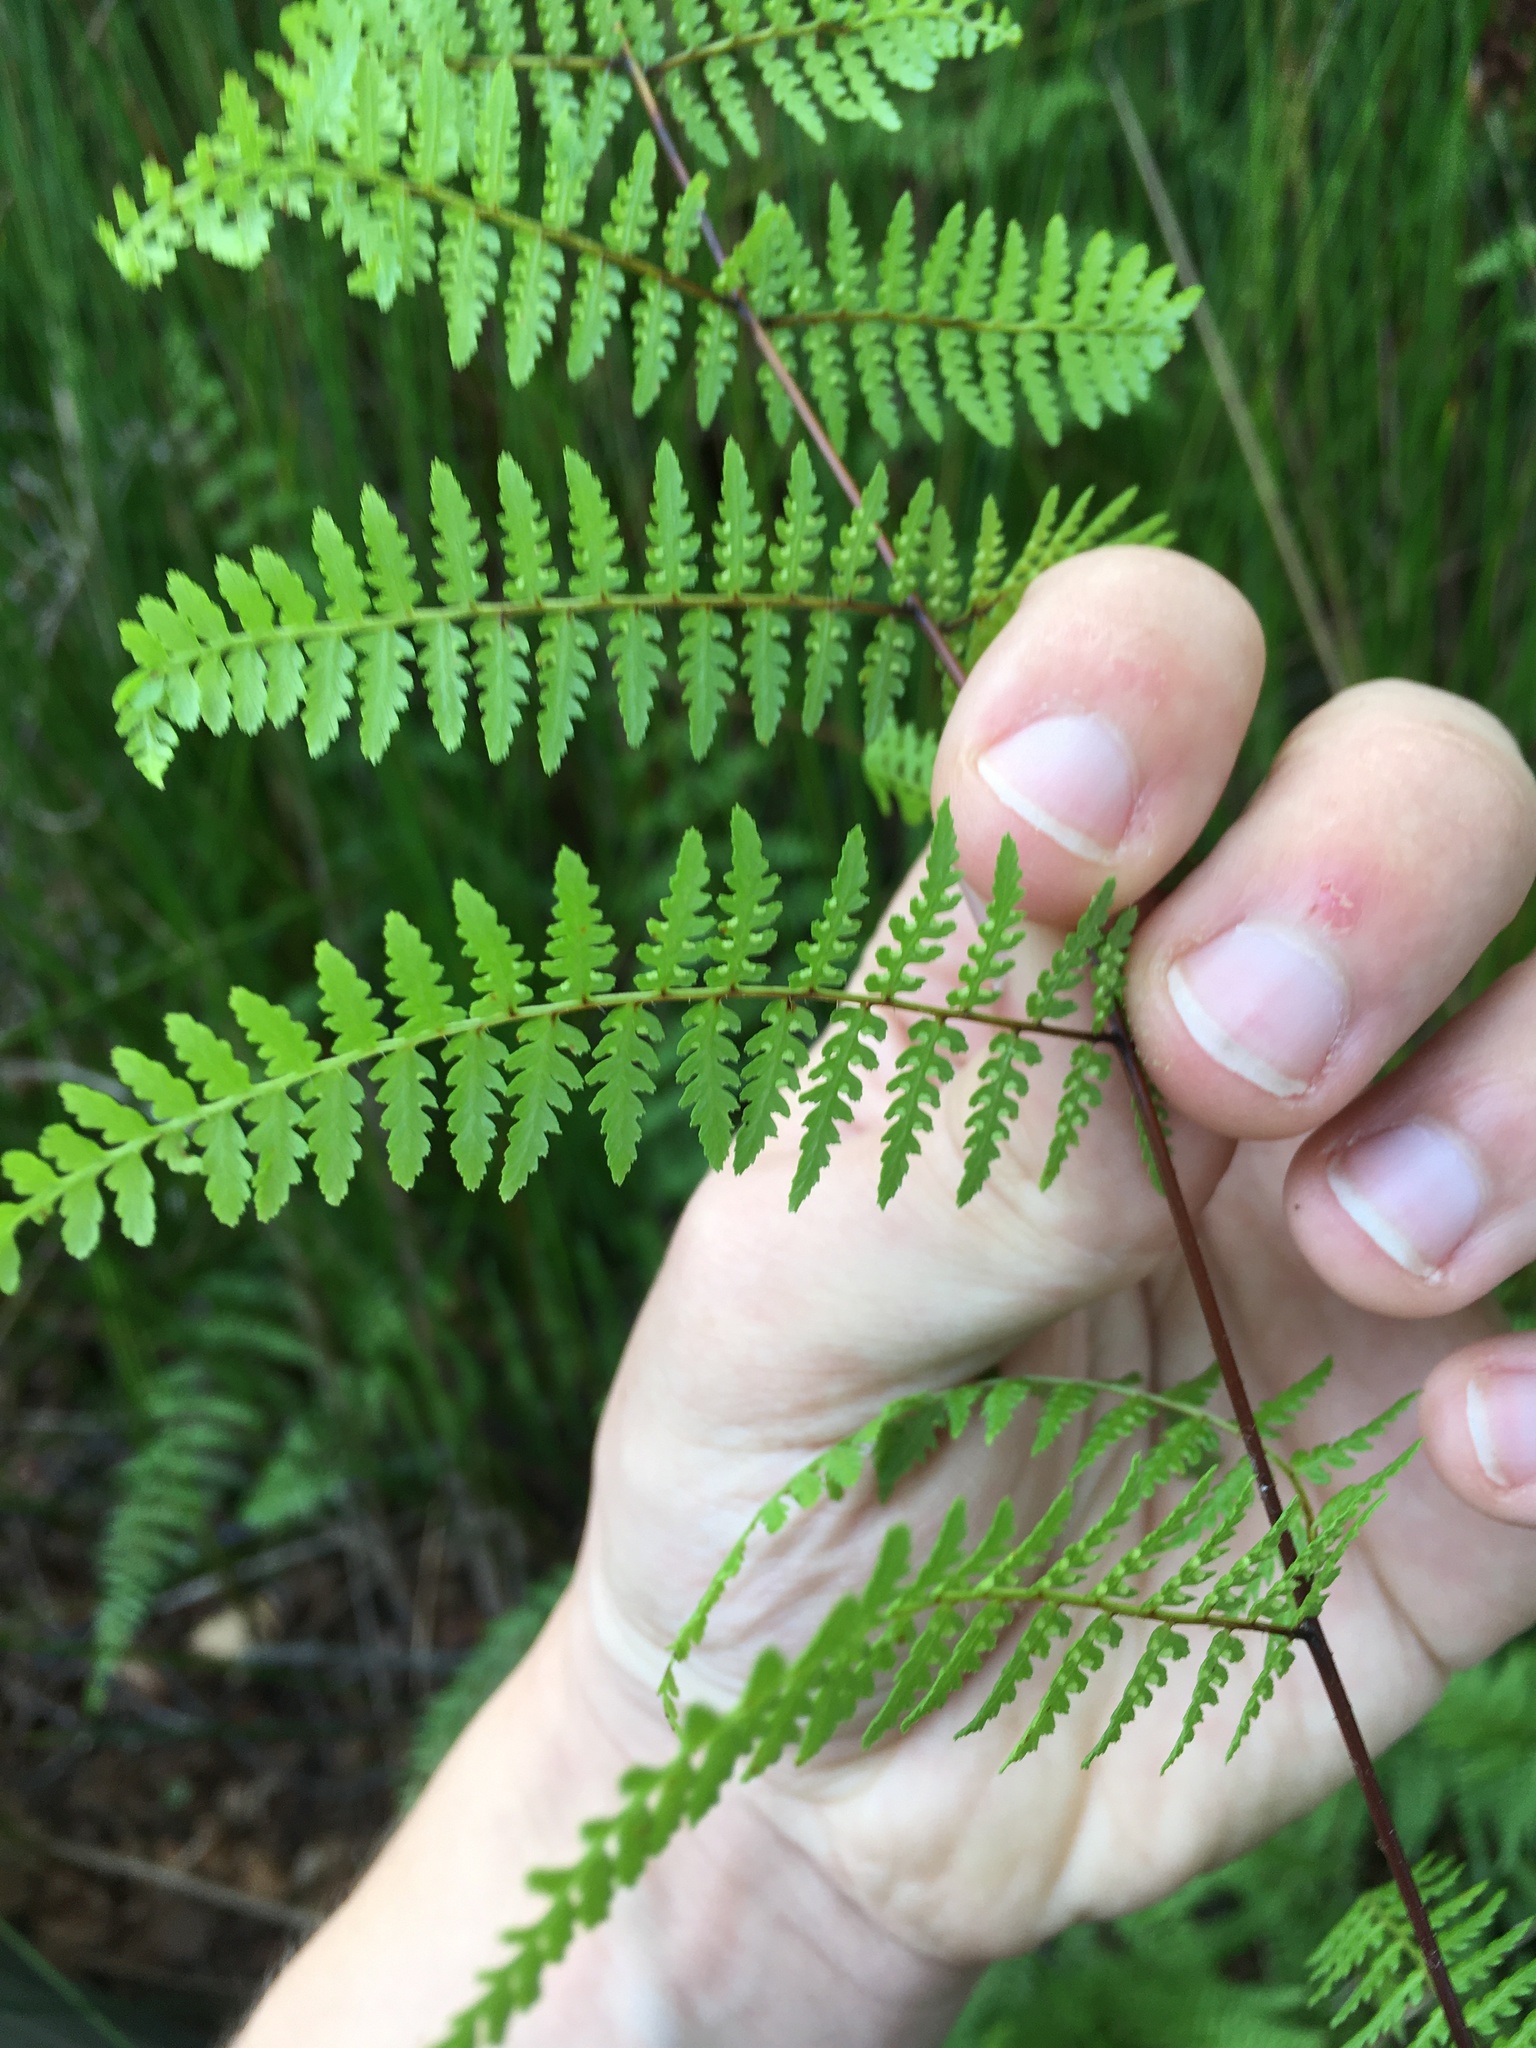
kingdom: Plantae
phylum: Tracheophyta
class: Polypodiopsida
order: Polypodiales
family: Dennstaedtiaceae
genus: Hiya
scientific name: Hiya distans
